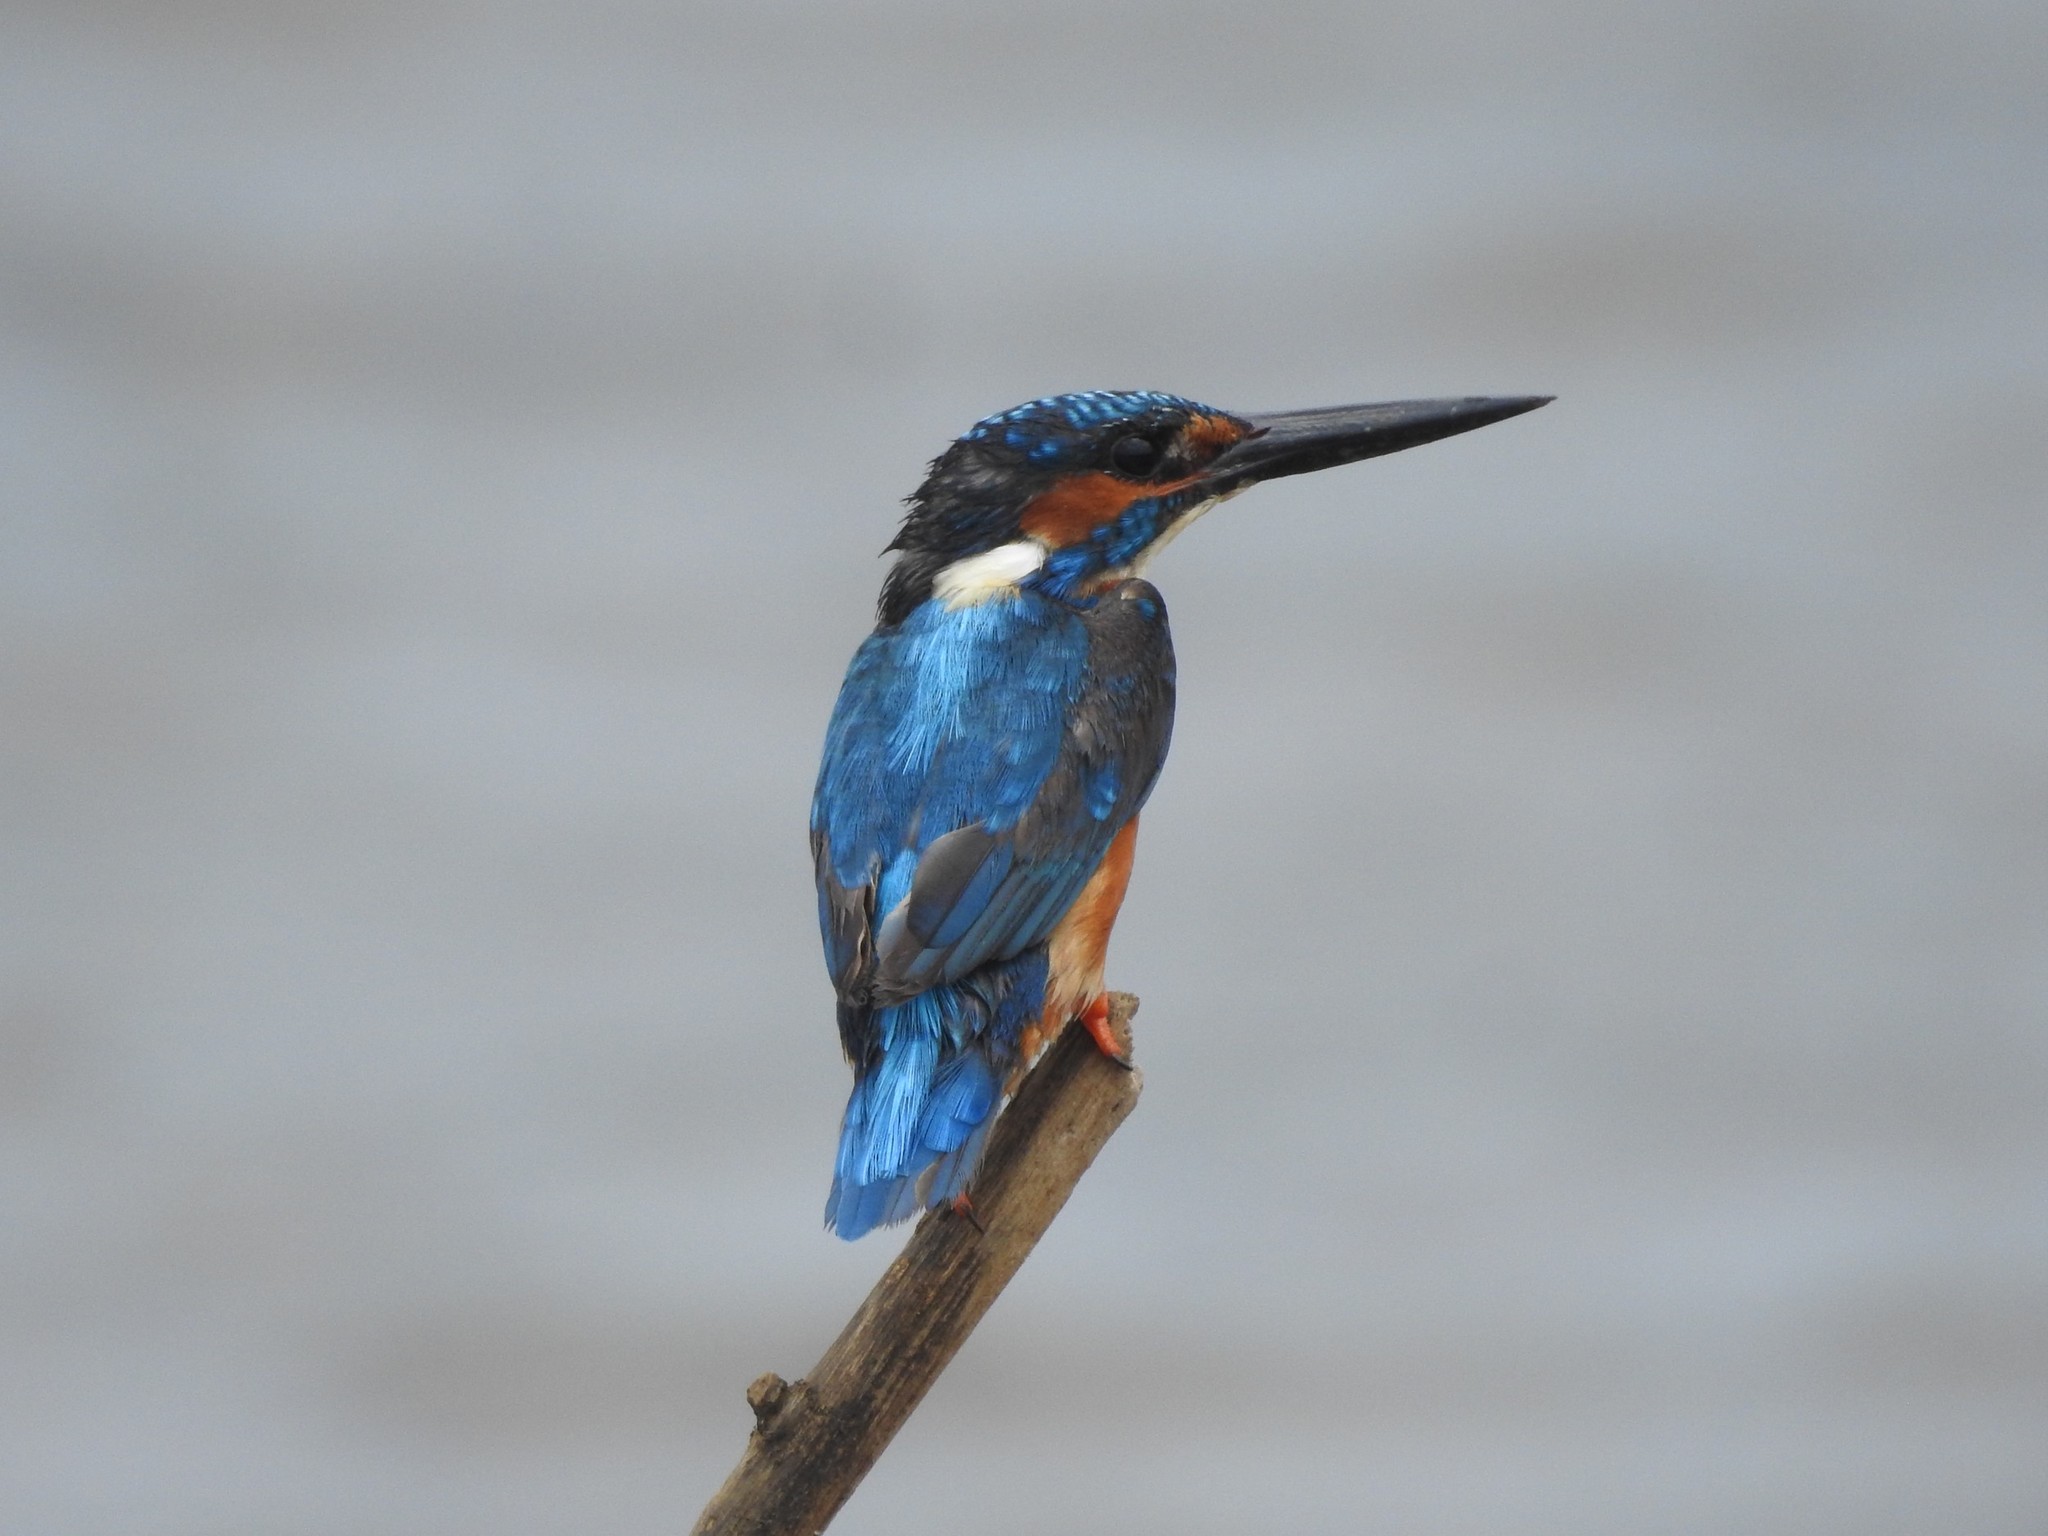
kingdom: Animalia
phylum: Chordata
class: Aves
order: Coraciiformes
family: Alcedinidae
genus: Alcedo
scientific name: Alcedo atthis
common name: Common kingfisher
